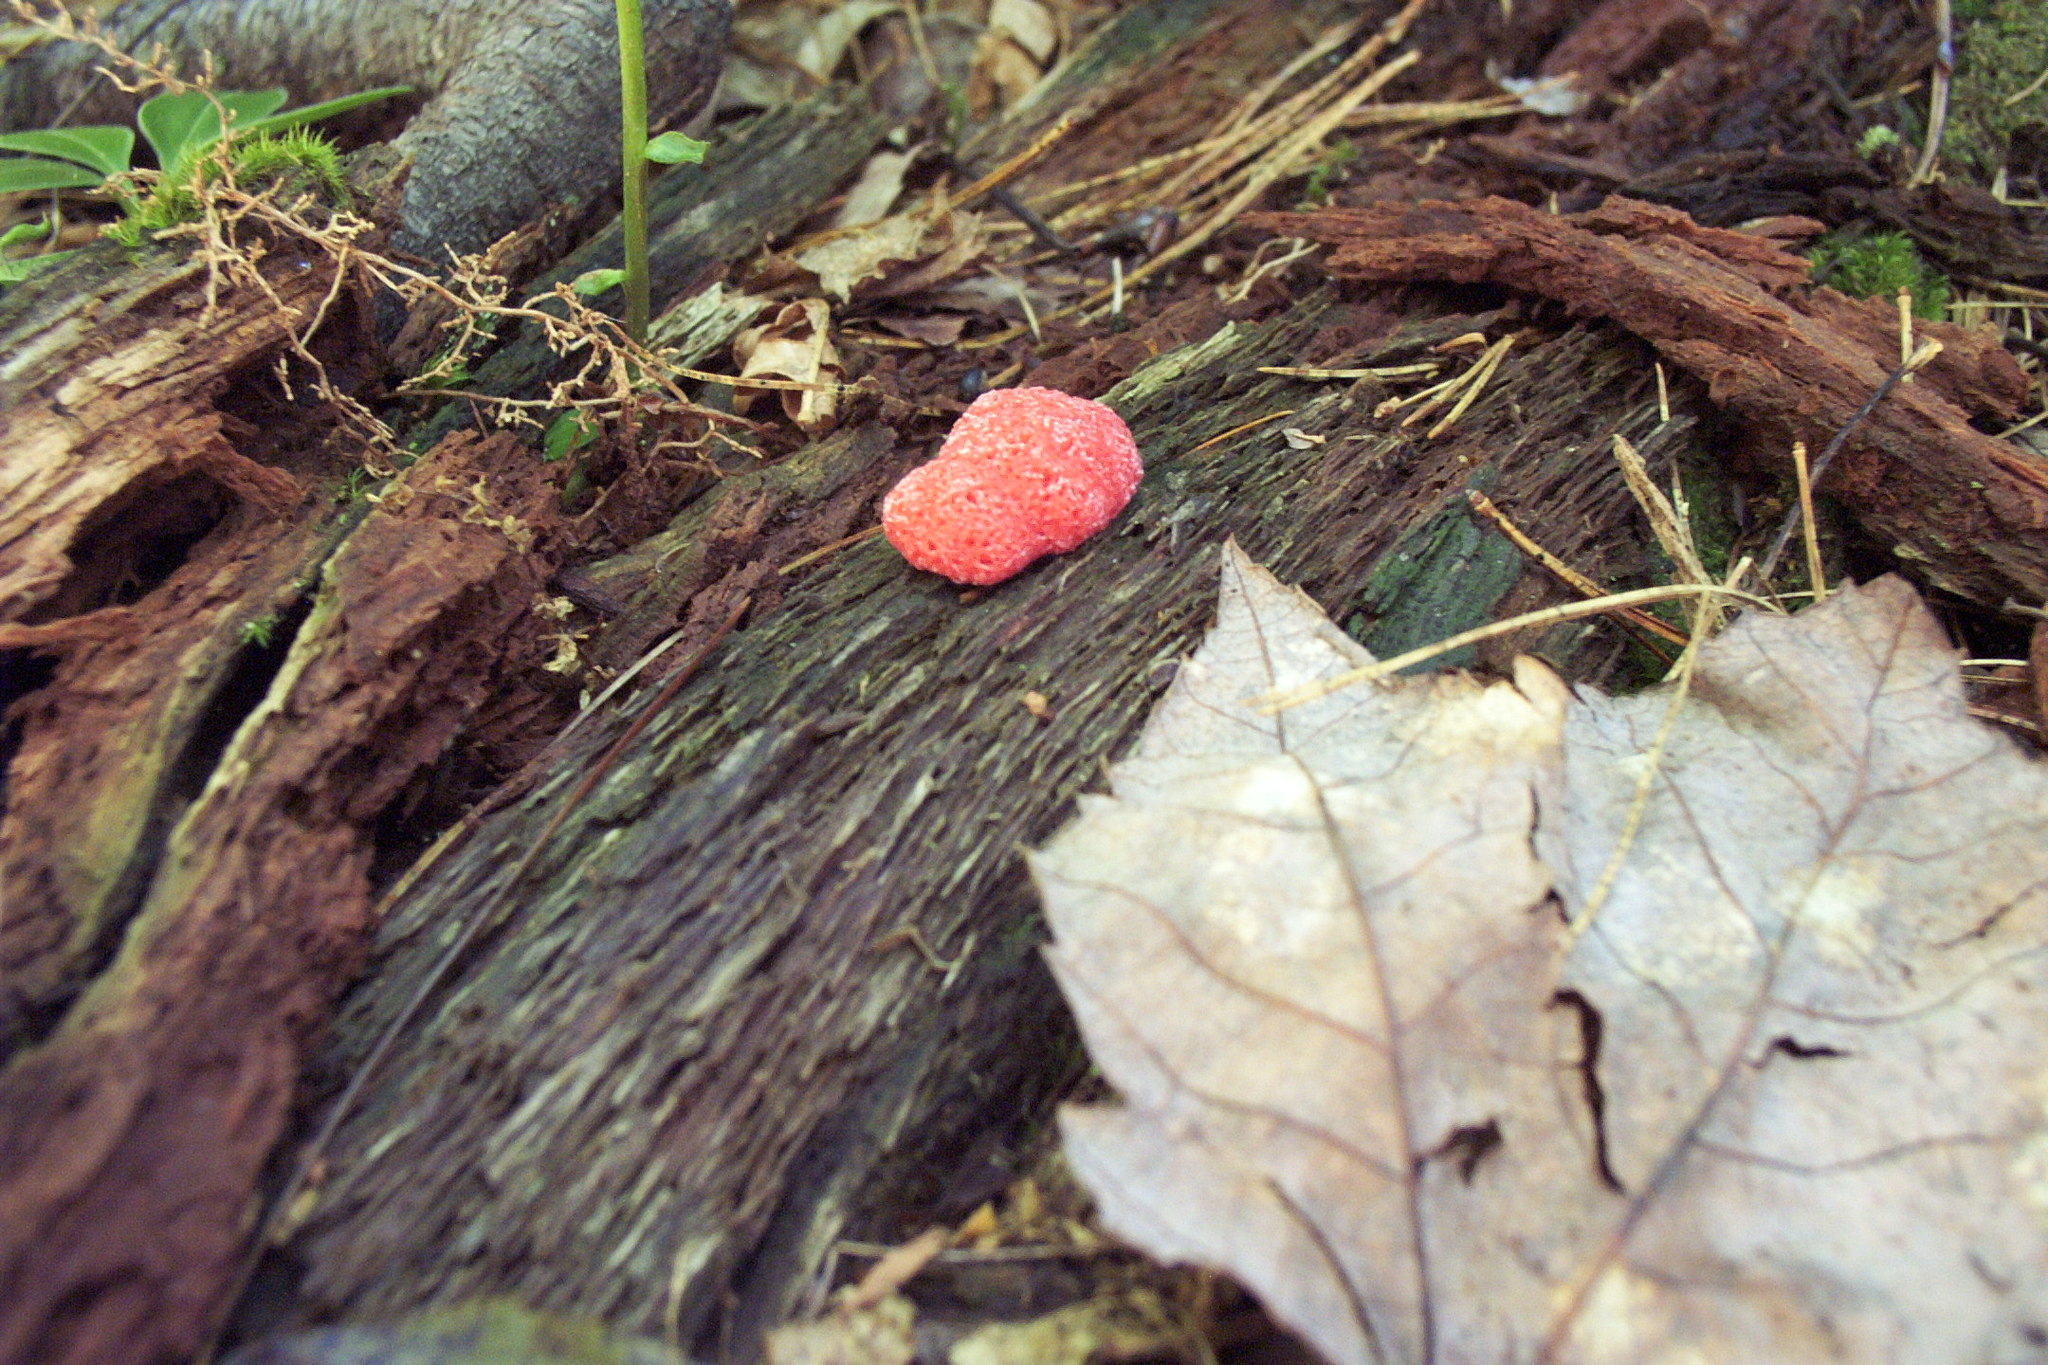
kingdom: Protozoa
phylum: Mycetozoa
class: Myxomycetes
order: Cribrariales
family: Tubiferaceae
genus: Tubifera
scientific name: Tubifera ferruginosa
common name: Red raspberry slime mold
